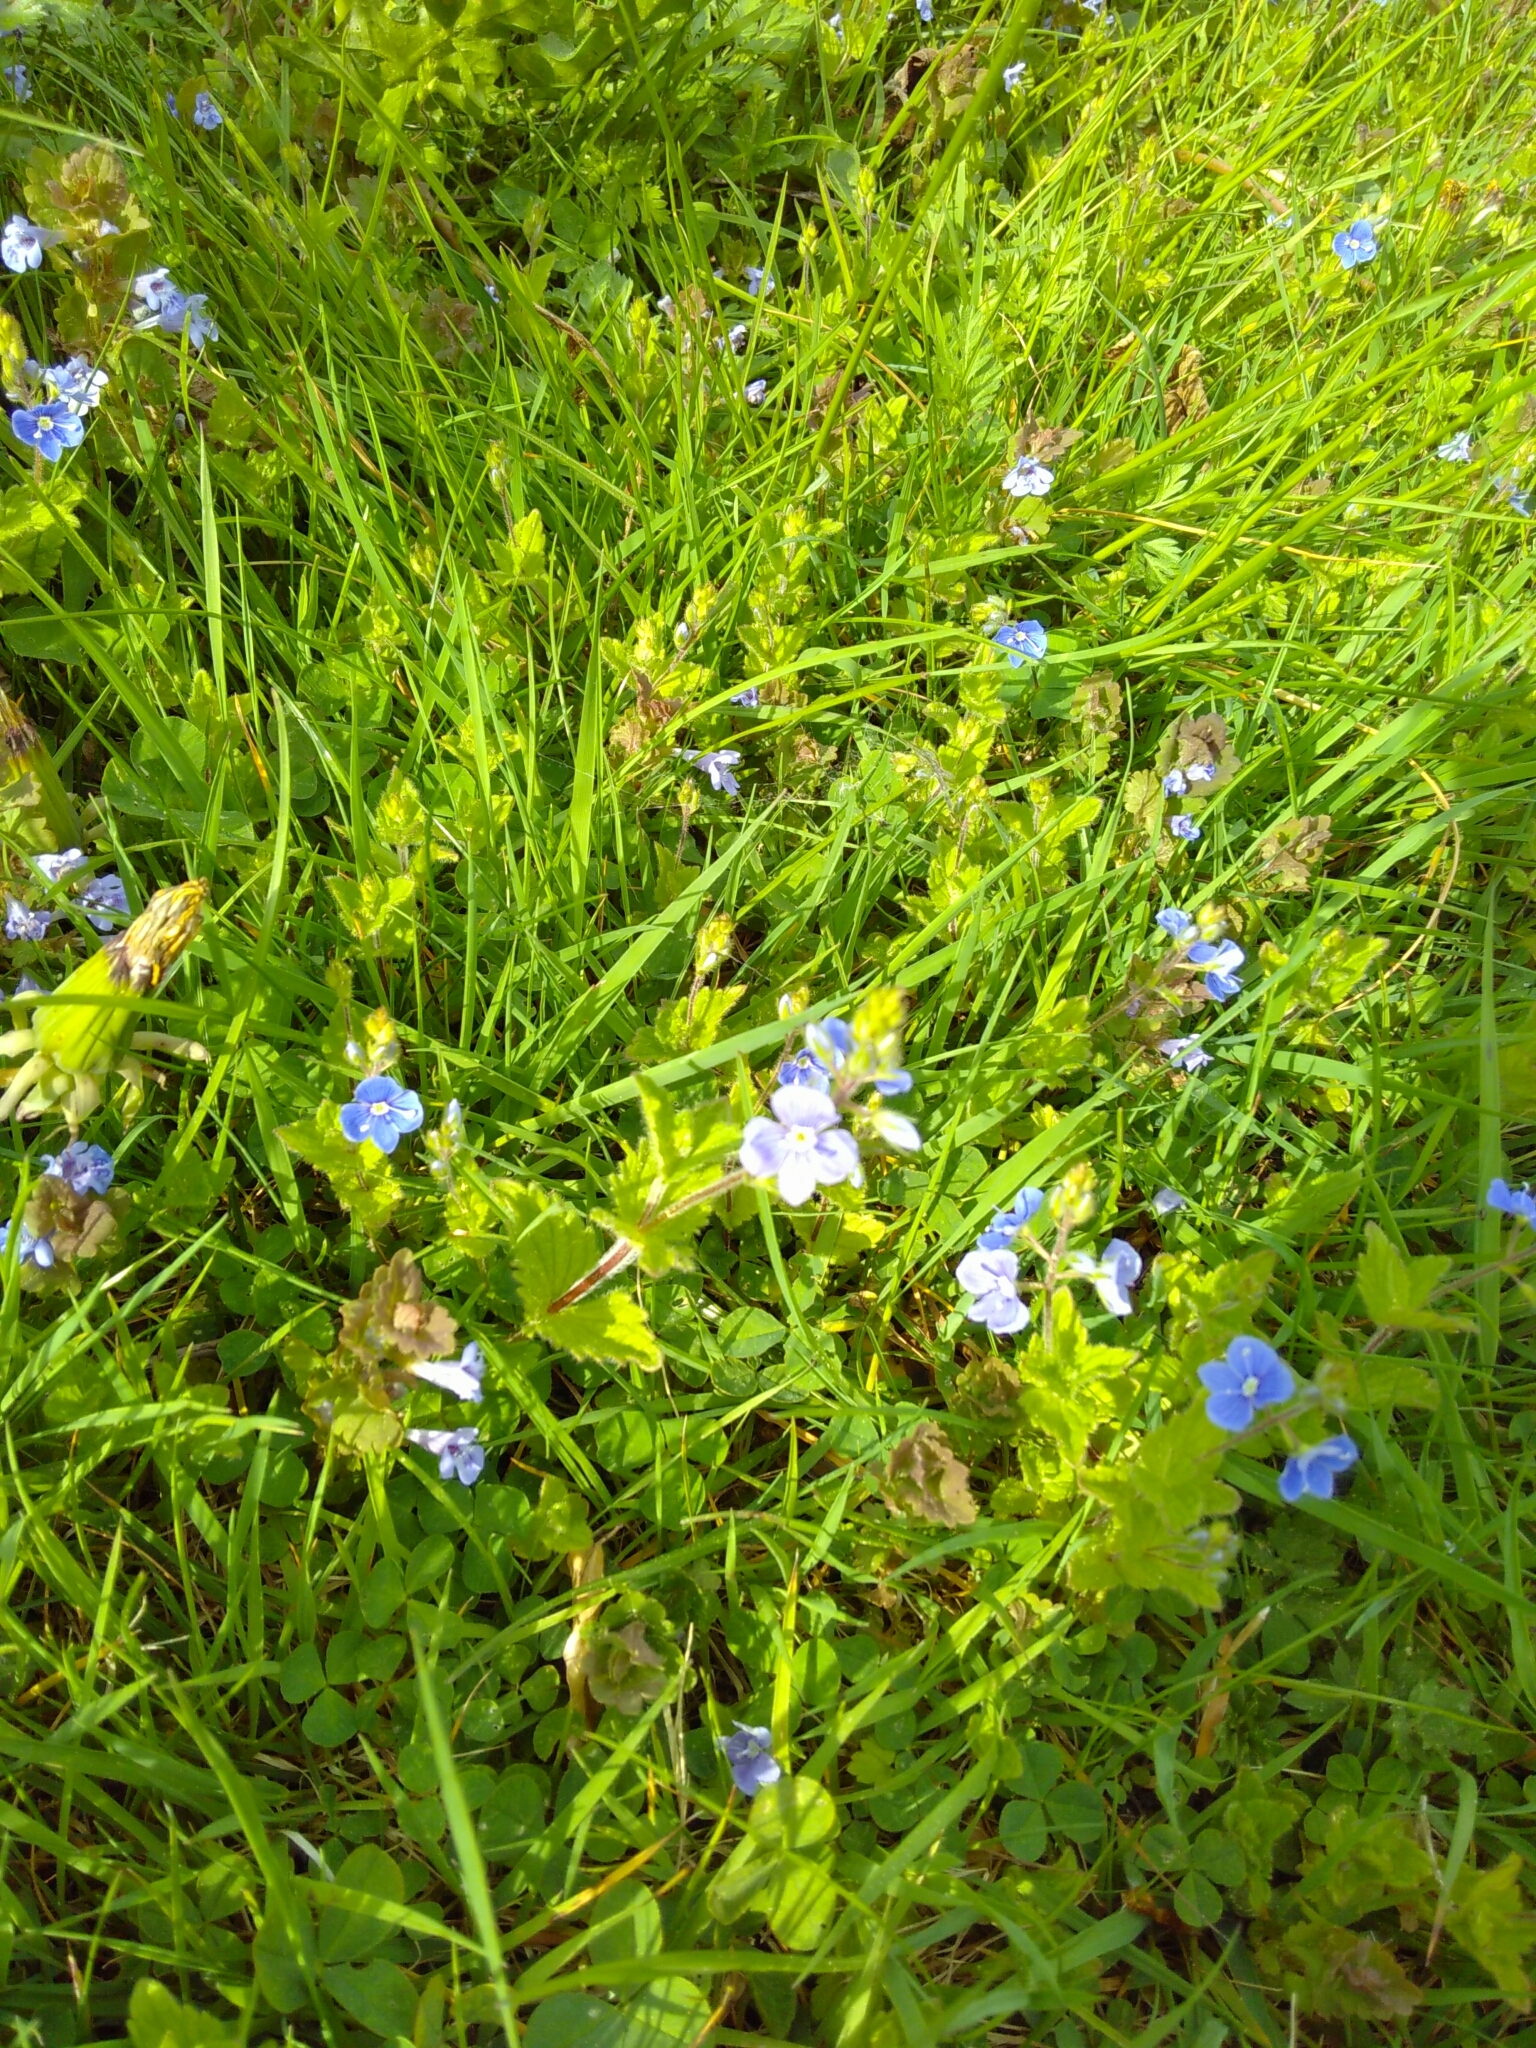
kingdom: Plantae
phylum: Tracheophyta
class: Magnoliopsida
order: Lamiales
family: Plantaginaceae
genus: Veronica
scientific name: Veronica chamaedrys
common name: Germander speedwell
